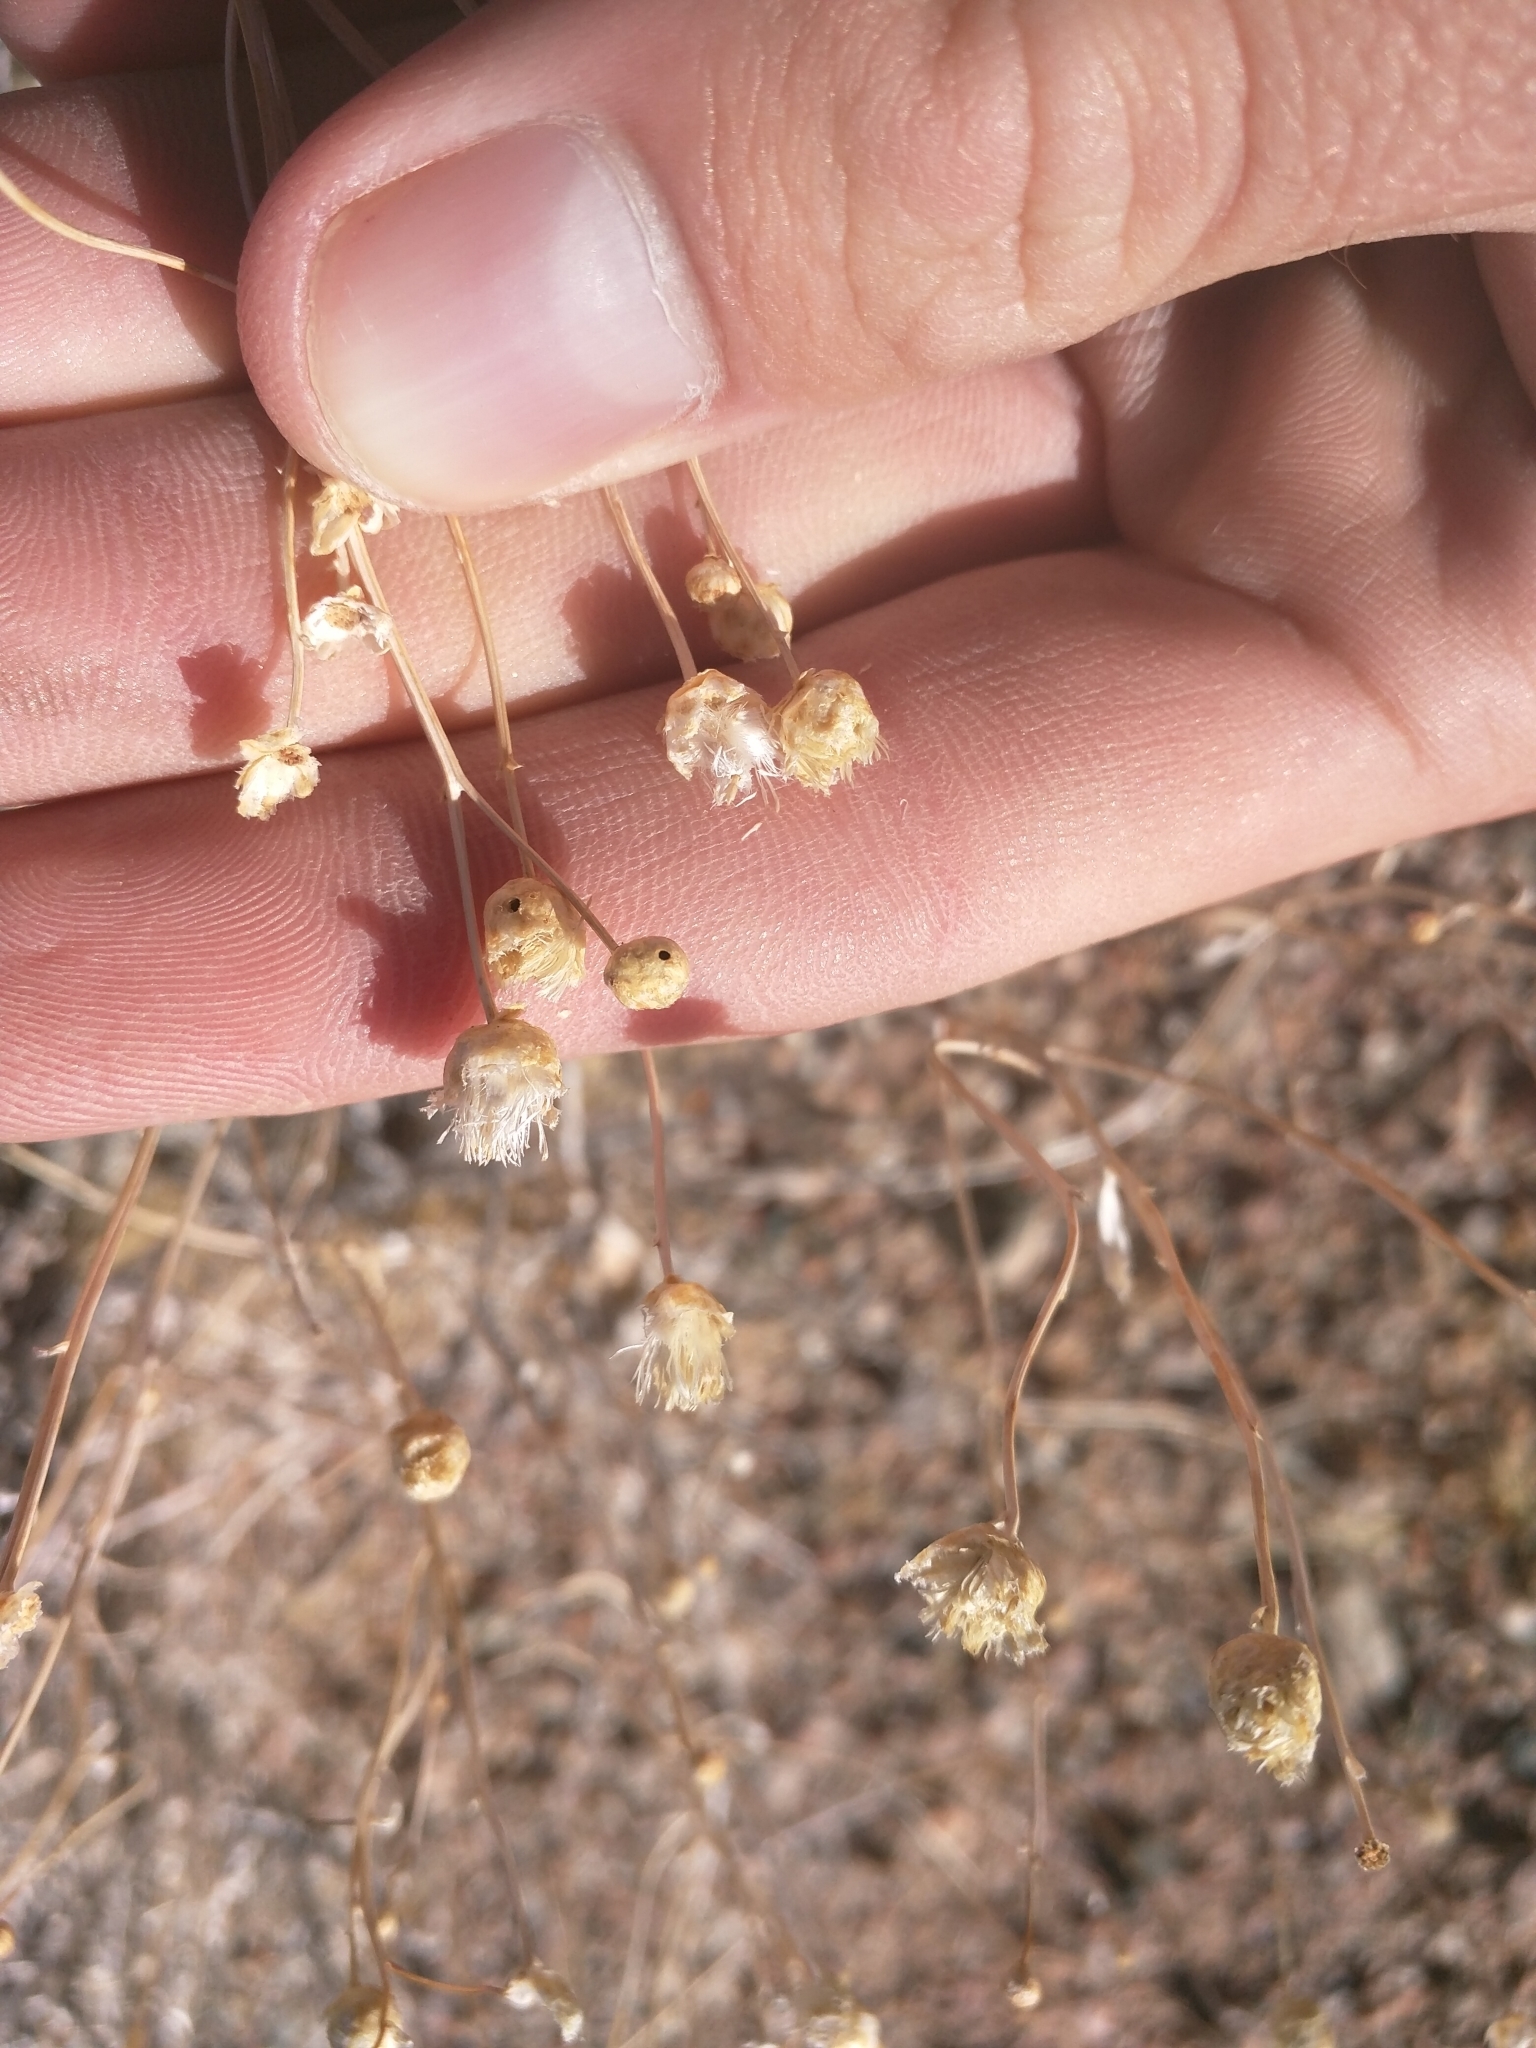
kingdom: Plantae
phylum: Tracheophyta
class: Magnoliopsida
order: Asterales
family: Asteraceae
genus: Acamptopappus
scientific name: Acamptopappus sphaerocephalus
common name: Goldenhead
